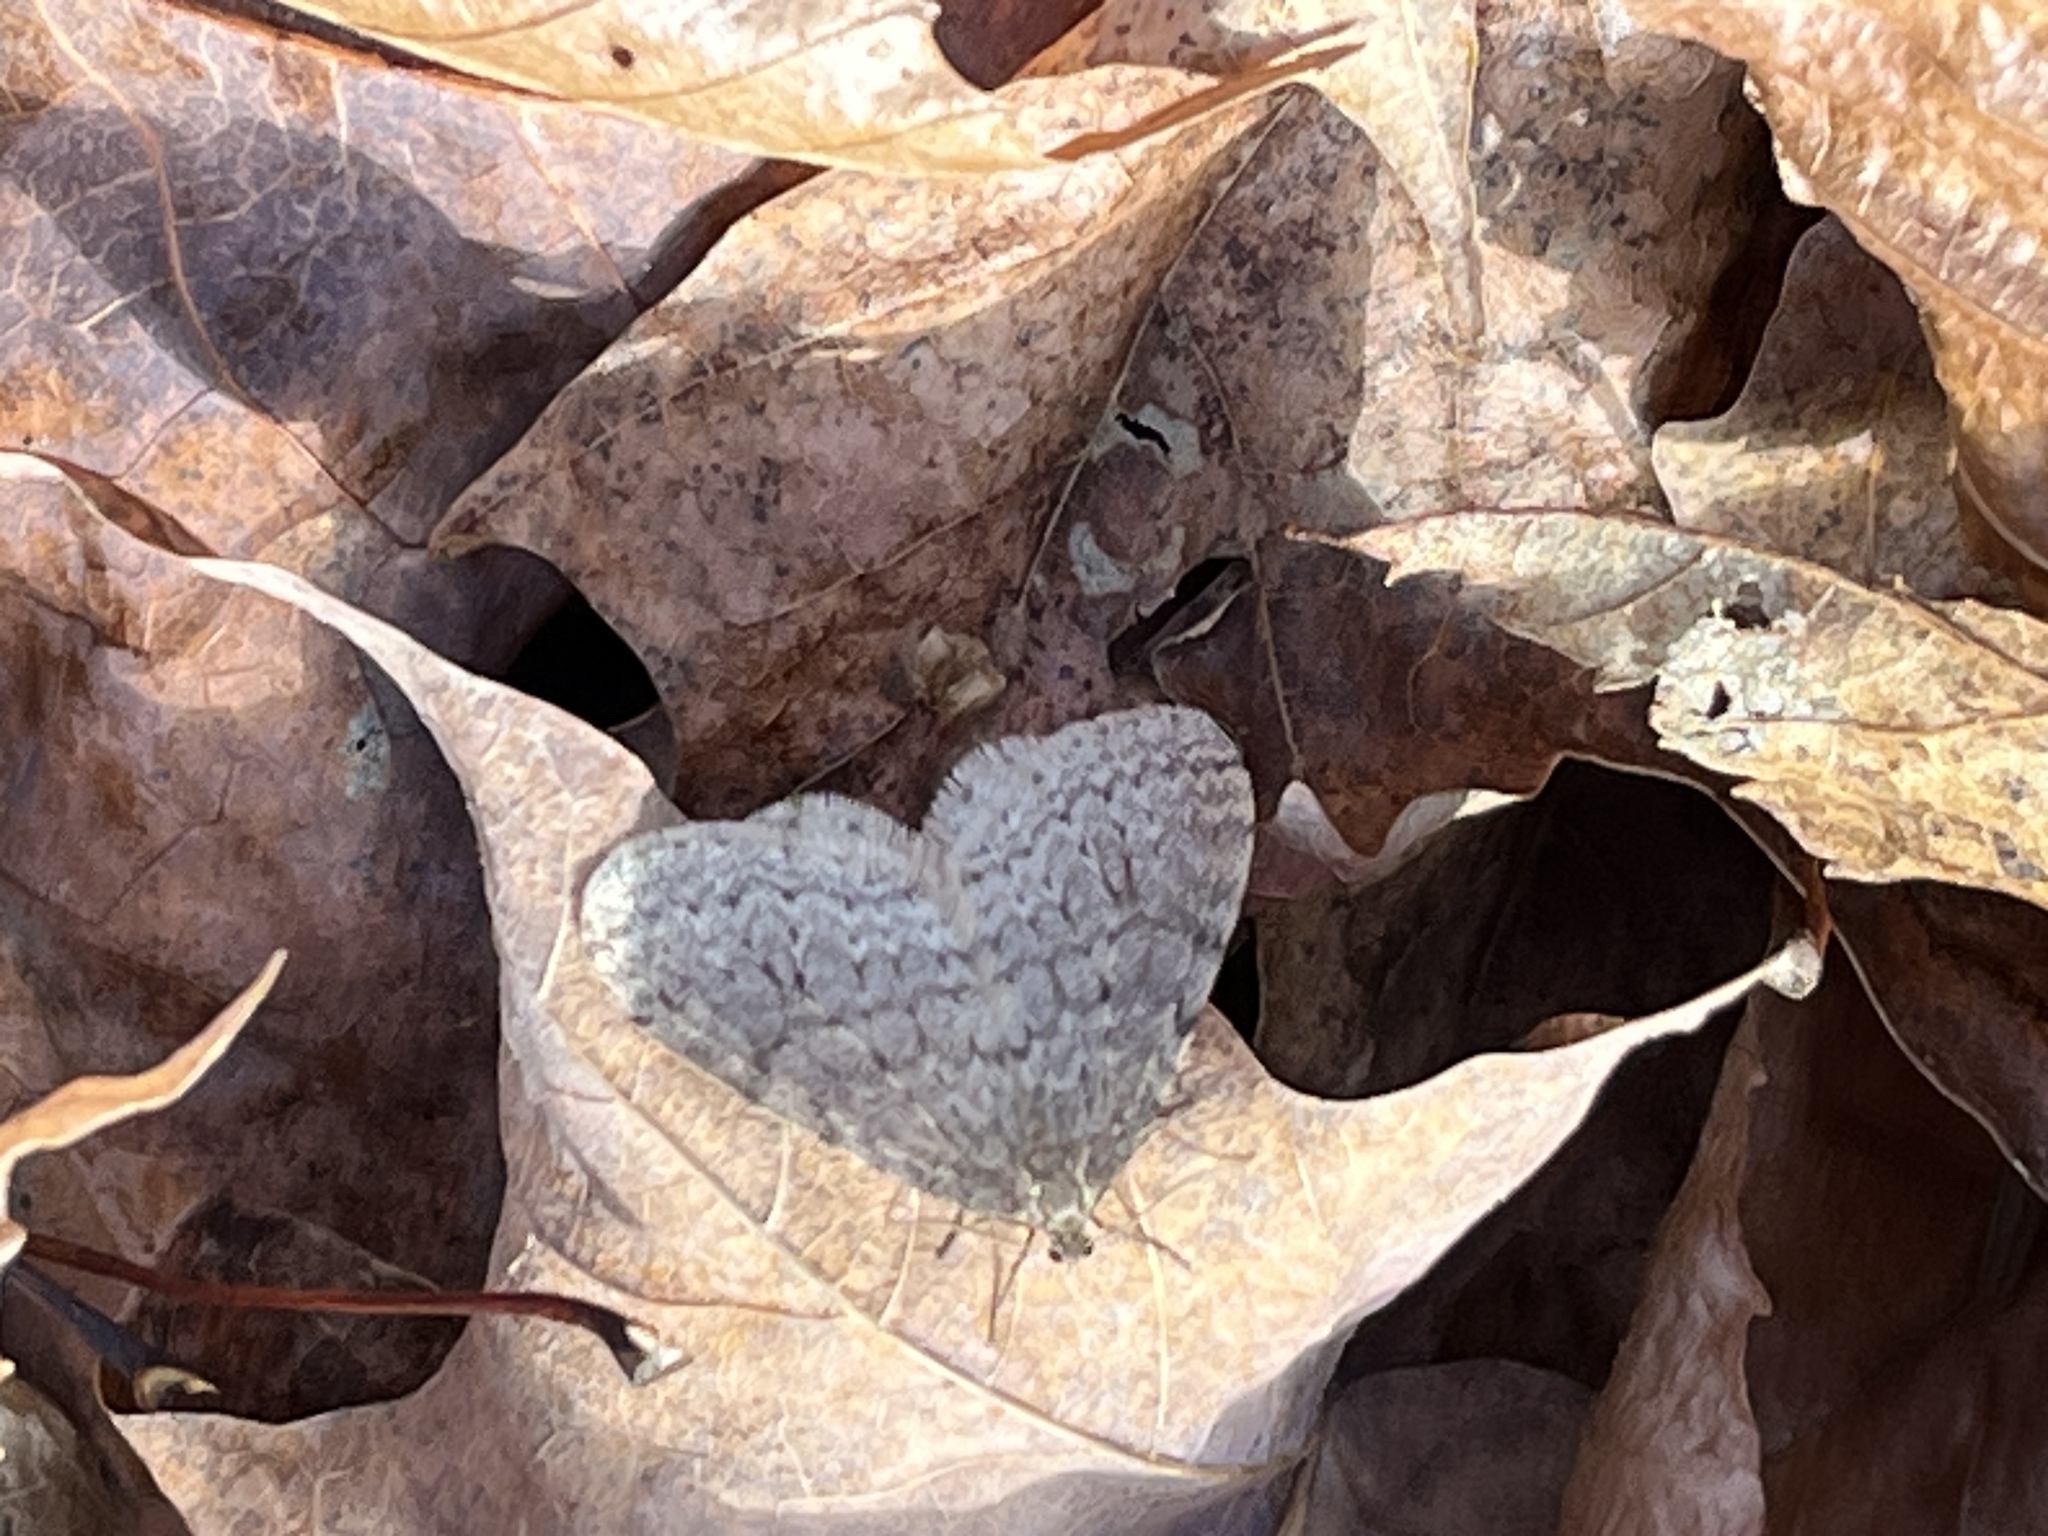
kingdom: Animalia
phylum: Arthropoda
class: Insecta
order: Lepidoptera
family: Geometridae
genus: Operophtera
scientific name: Operophtera bruceata
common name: Bruce spanworm
